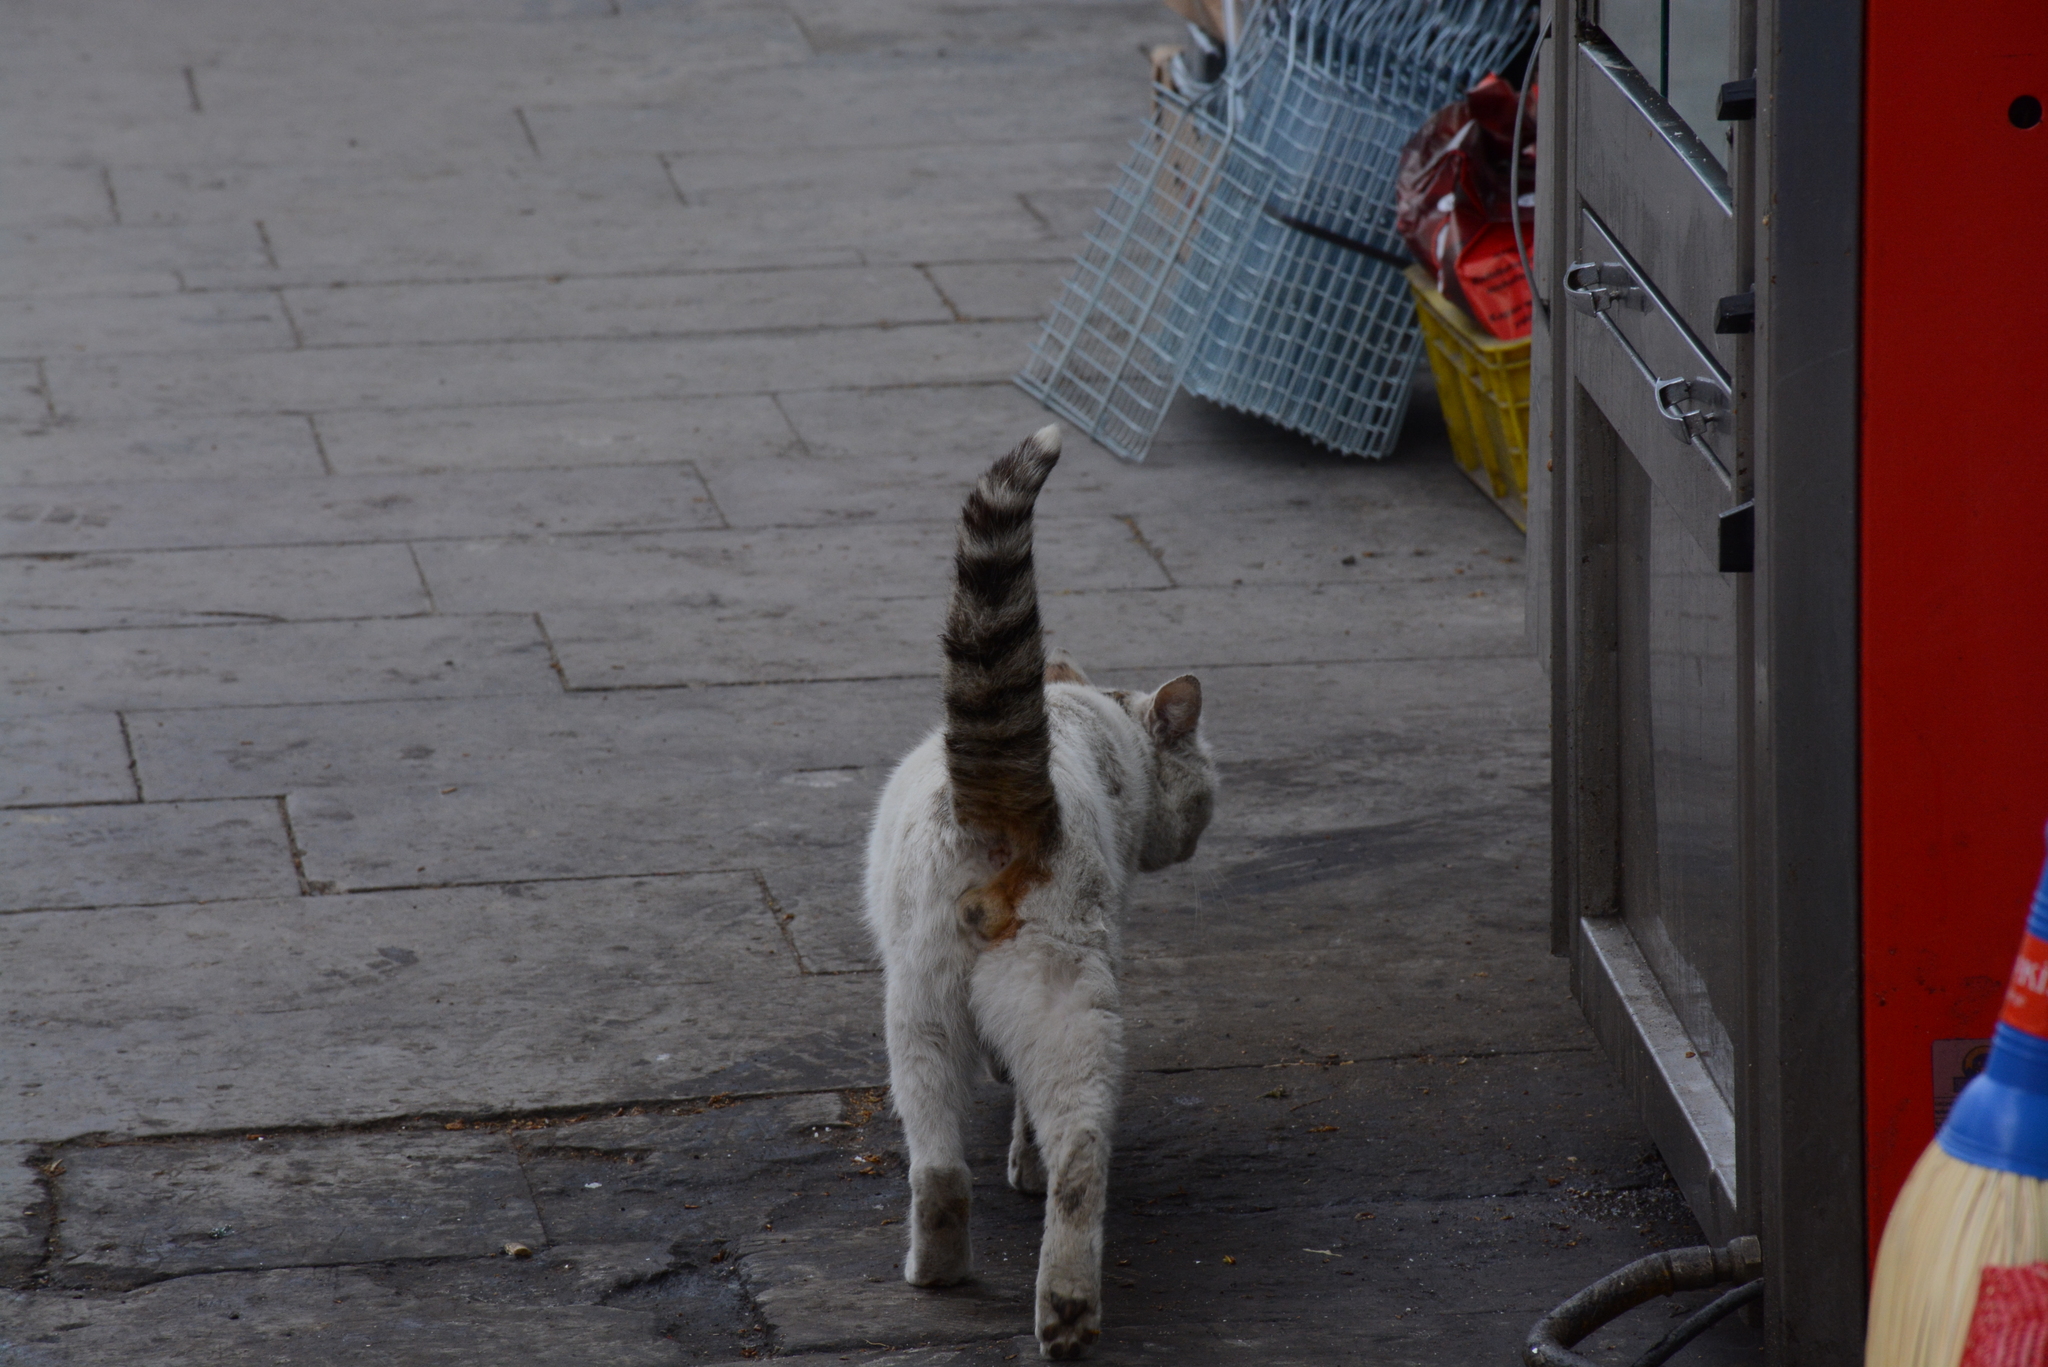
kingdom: Animalia
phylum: Chordata
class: Mammalia
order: Carnivora
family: Felidae
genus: Felis
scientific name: Felis catus
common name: Domestic cat
